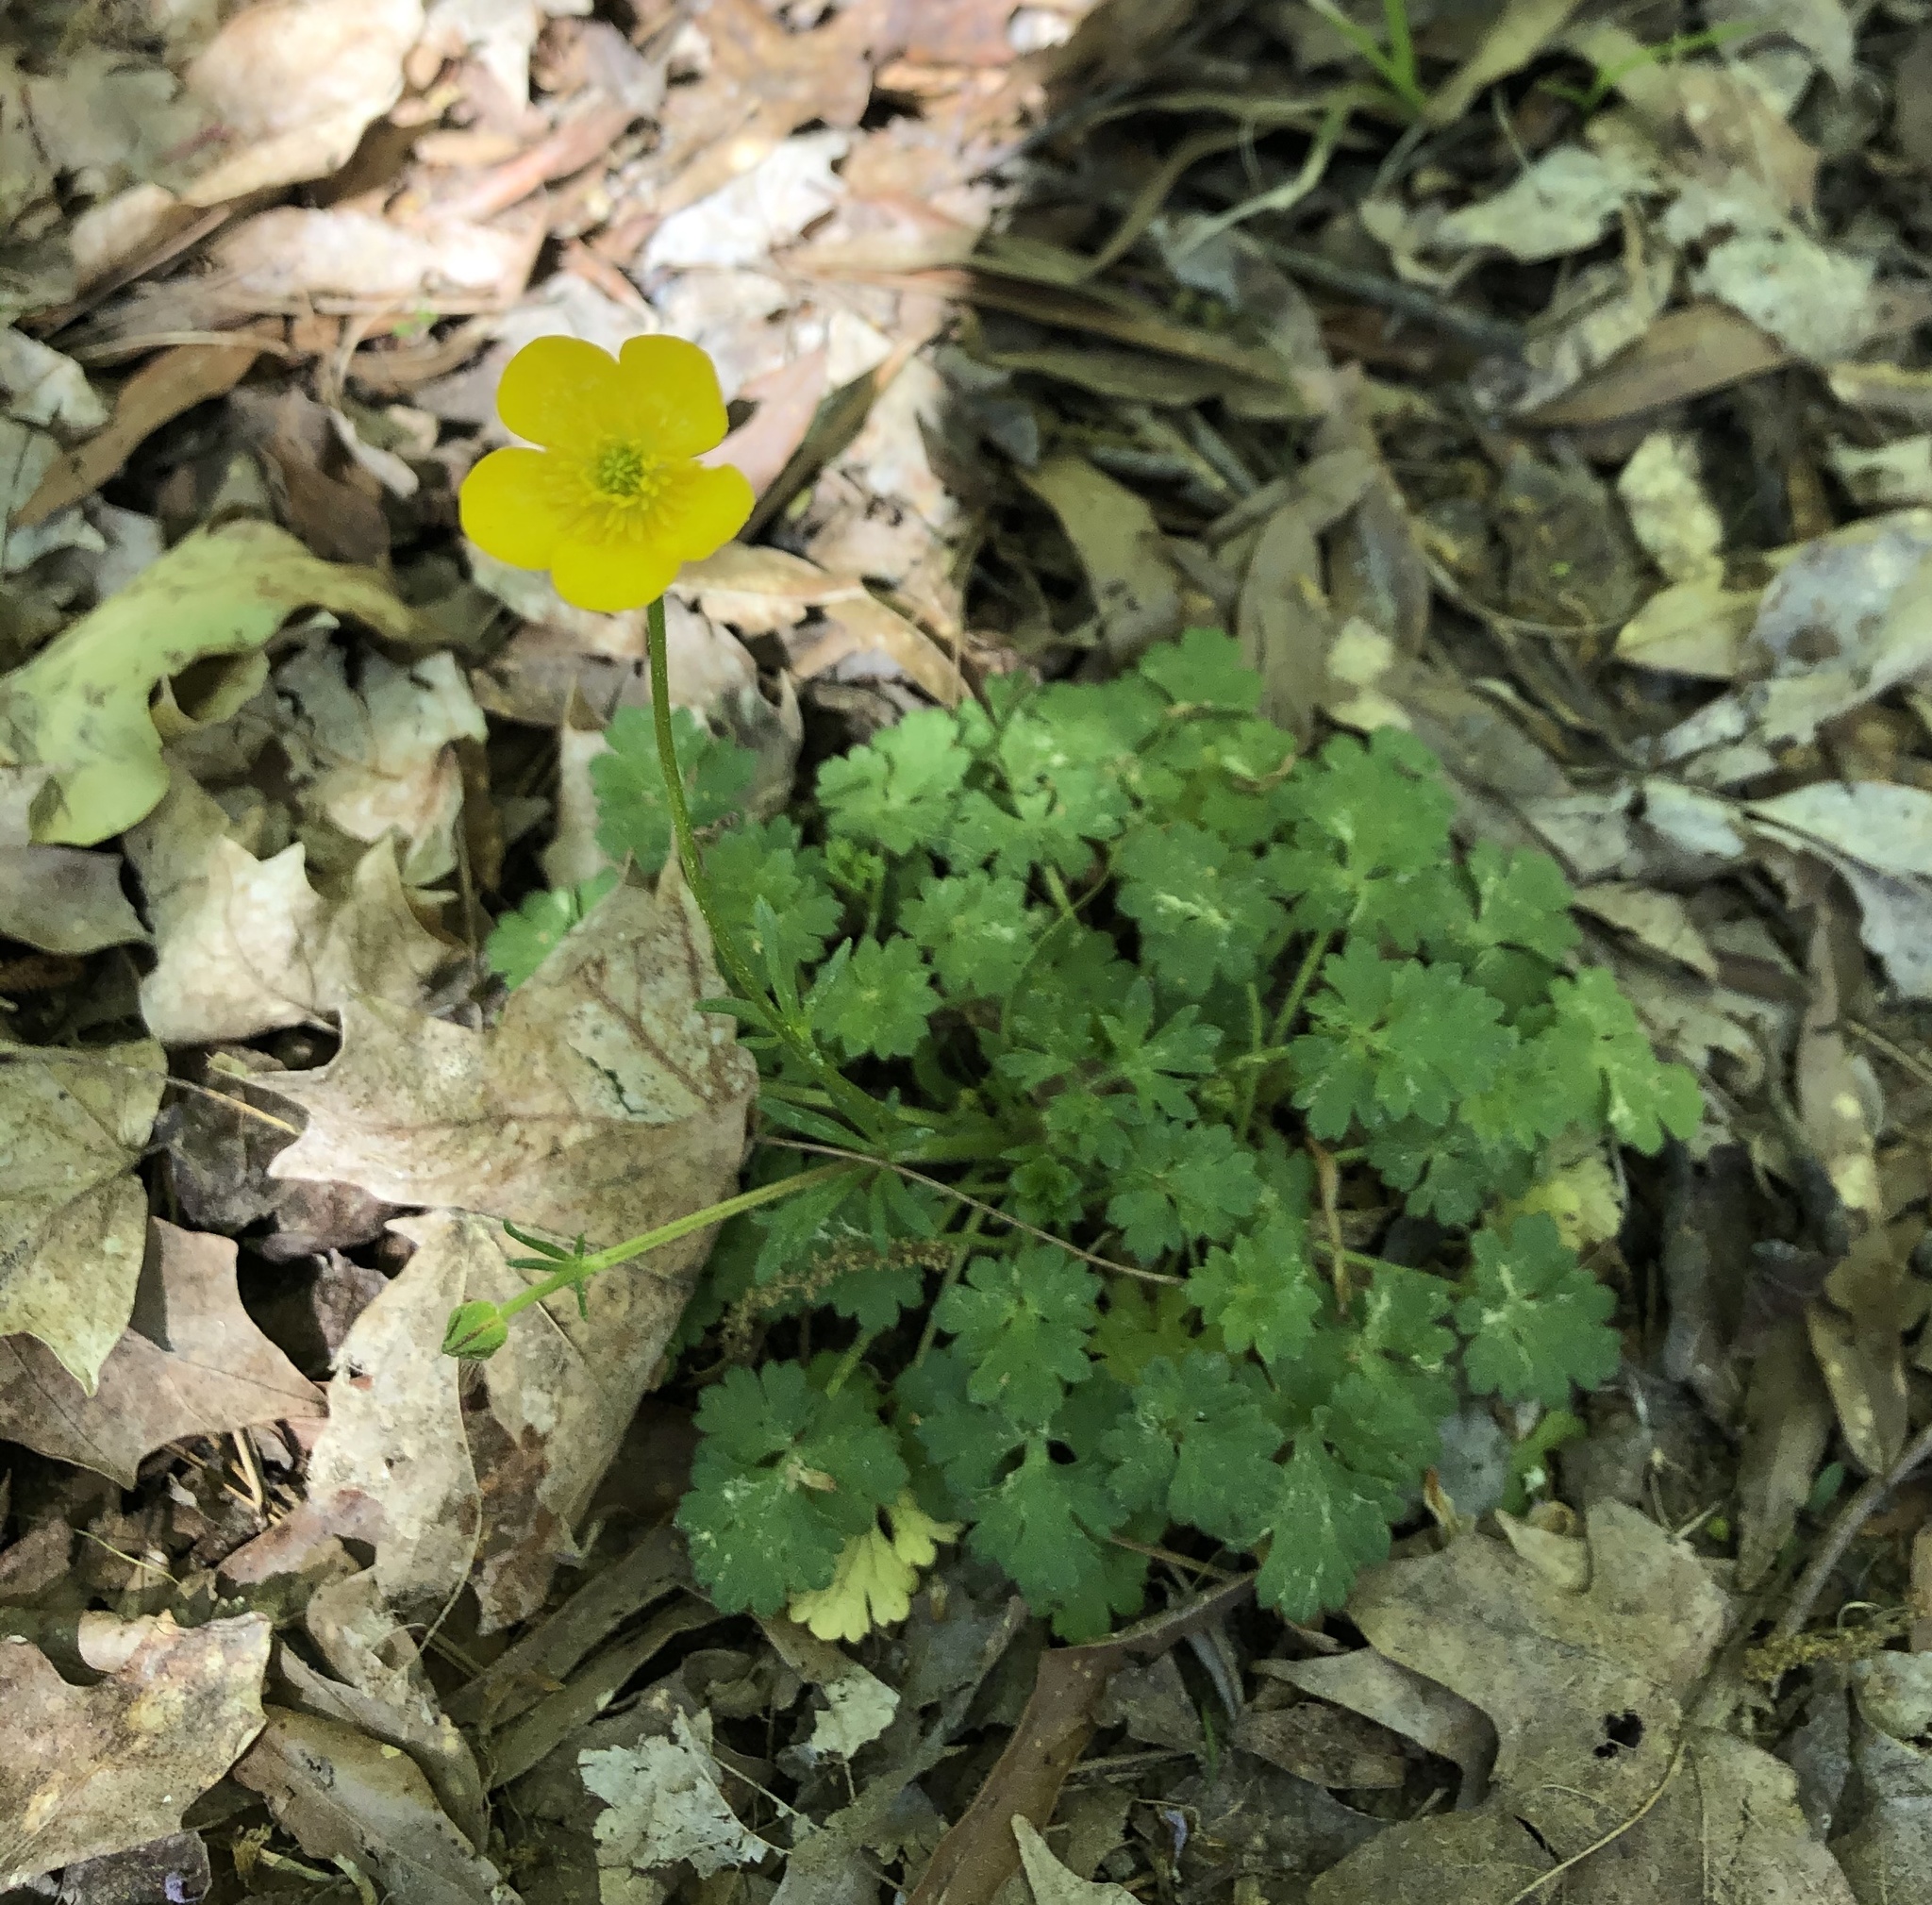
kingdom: Plantae
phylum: Tracheophyta
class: Magnoliopsida
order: Ranunculales
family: Ranunculaceae
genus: Ranunculus
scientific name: Ranunculus bulbosus
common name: Bulbous buttercup
